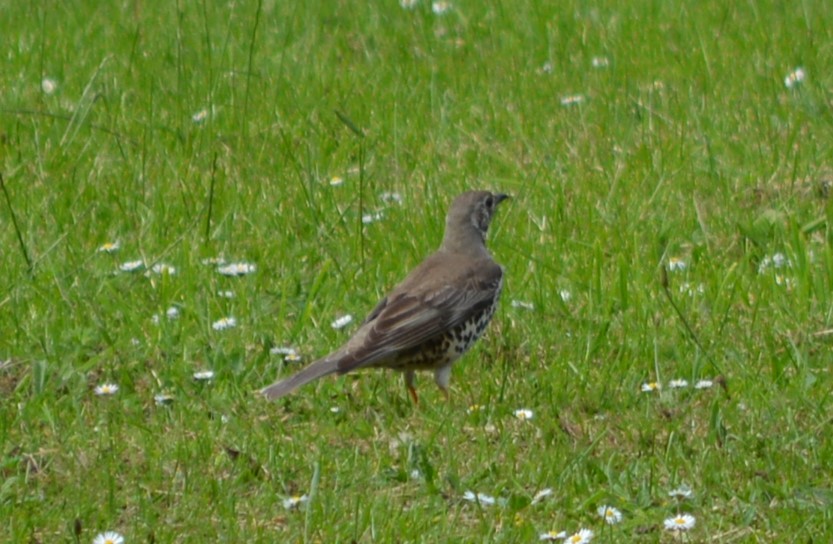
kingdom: Animalia
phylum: Chordata
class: Aves
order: Passeriformes
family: Turdidae
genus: Turdus
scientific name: Turdus viscivorus
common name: Mistle thrush
